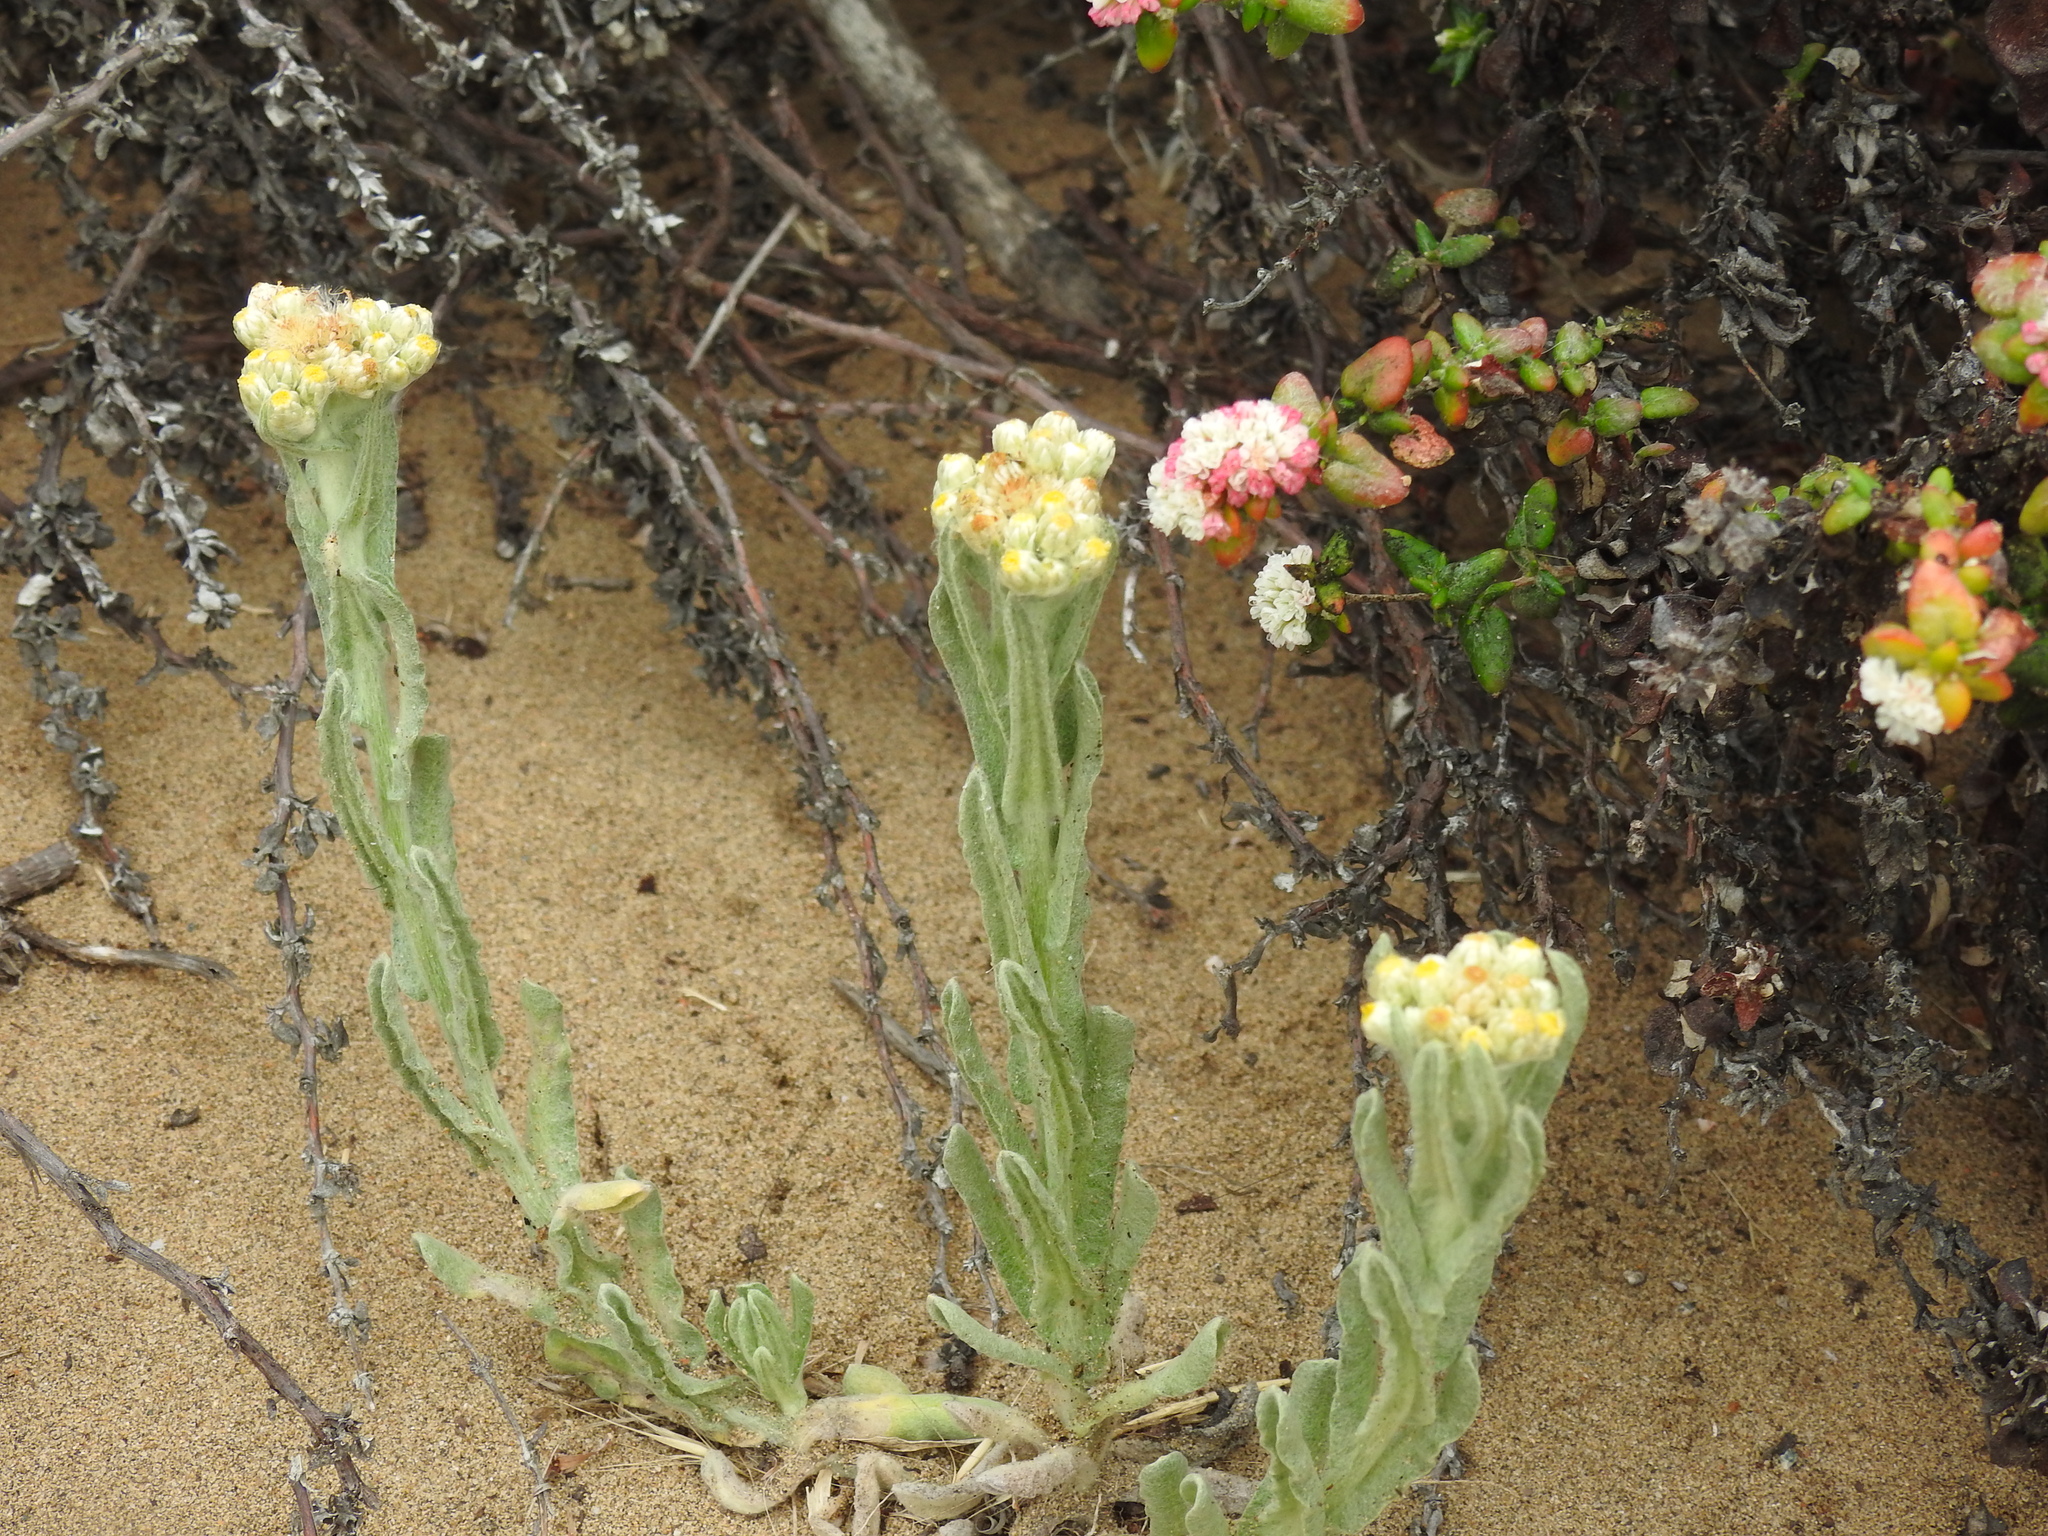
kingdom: Plantae
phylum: Tracheophyta
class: Magnoliopsida
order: Asterales
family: Asteraceae
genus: Pseudognaphalium
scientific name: Pseudognaphalium stramineum
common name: Cotton-batting-plant
